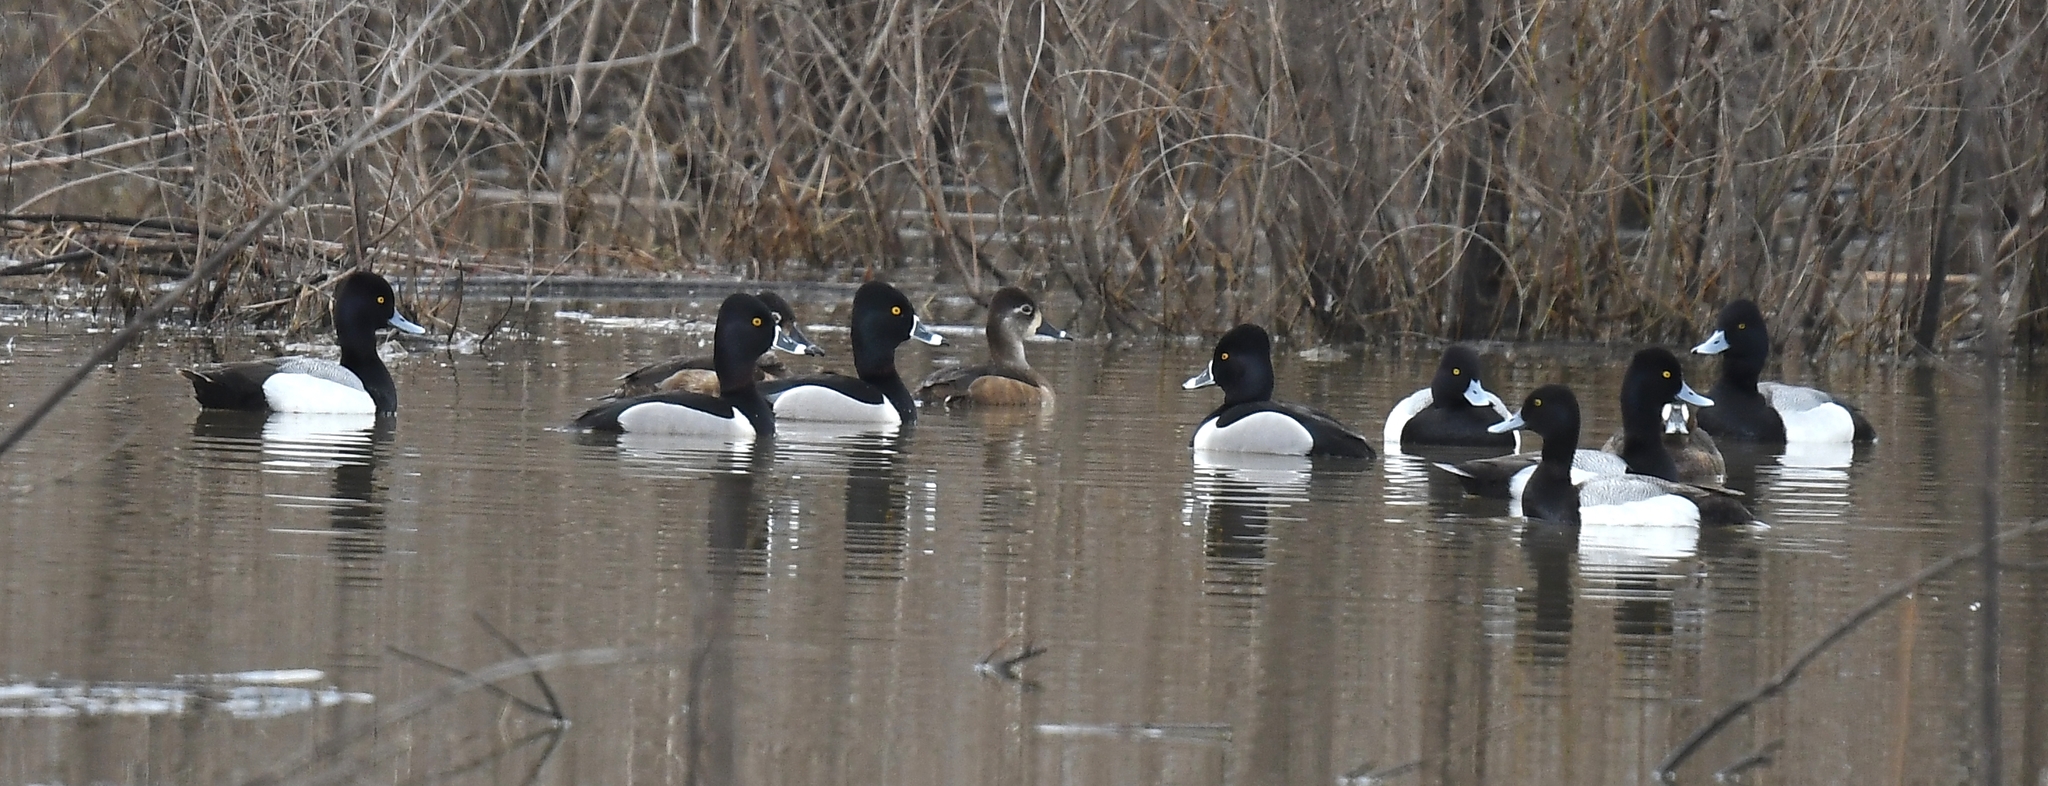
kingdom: Animalia
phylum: Chordata
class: Aves
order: Anseriformes
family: Anatidae
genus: Aythya
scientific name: Aythya collaris
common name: Ring-necked duck
